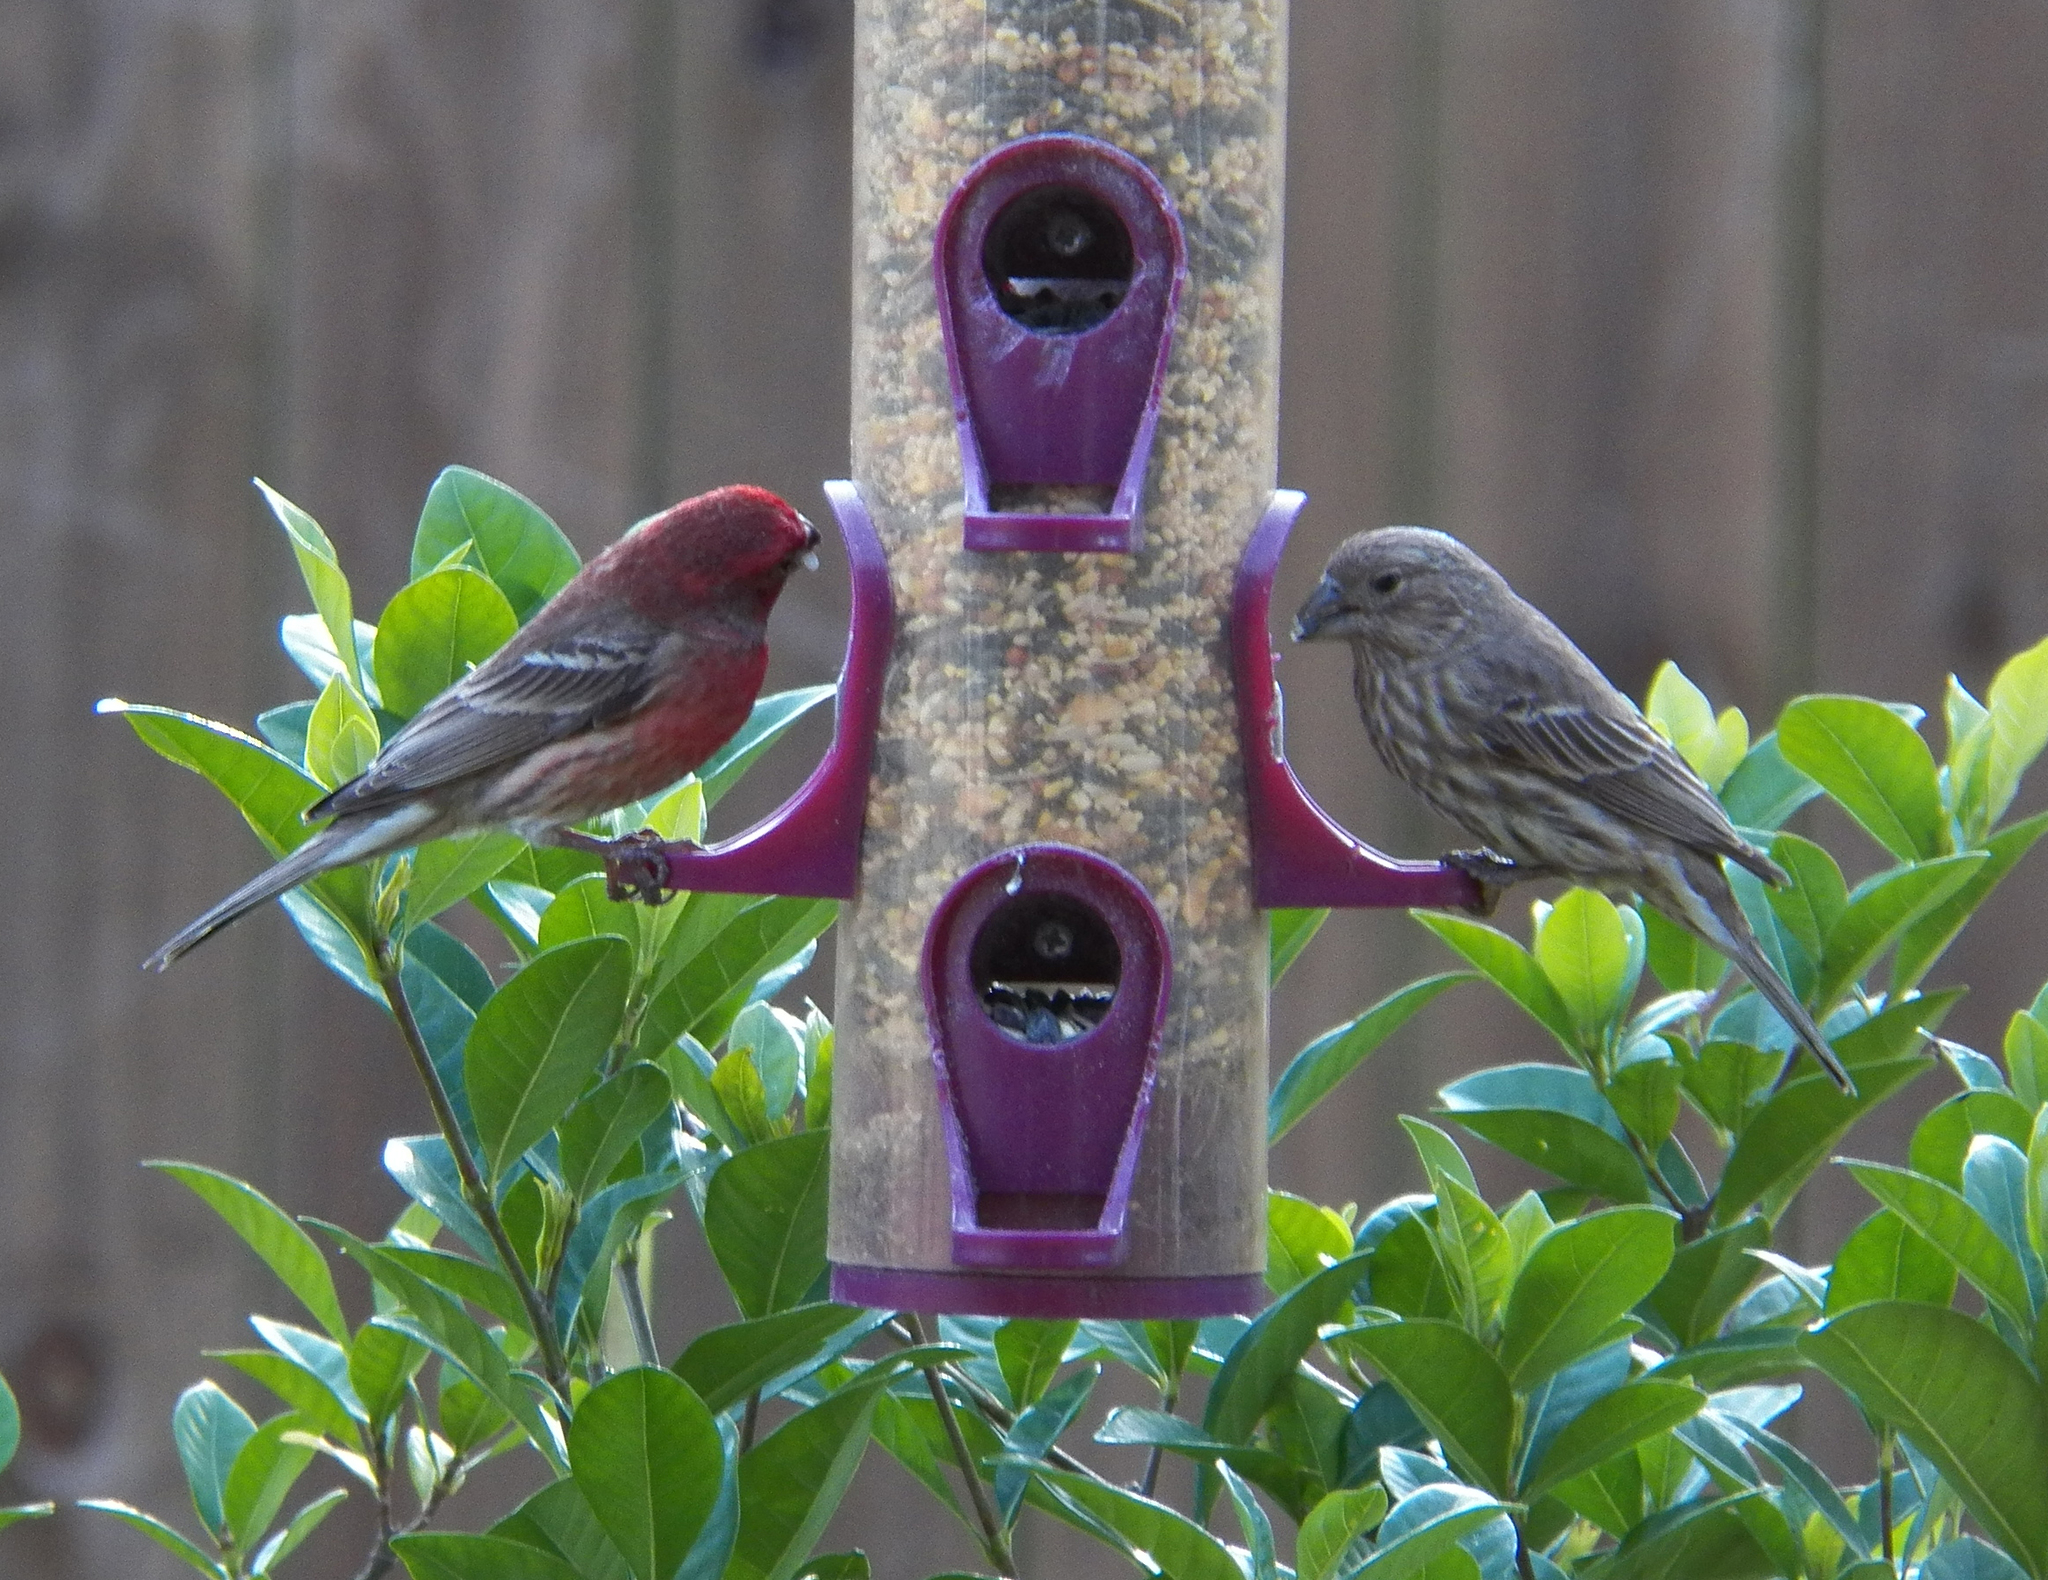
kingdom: Animalia
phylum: Chordata
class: Aves
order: Passeriformes
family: Fringillidae
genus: Haemorhous
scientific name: Haemorhous mexicanus
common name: House finch
